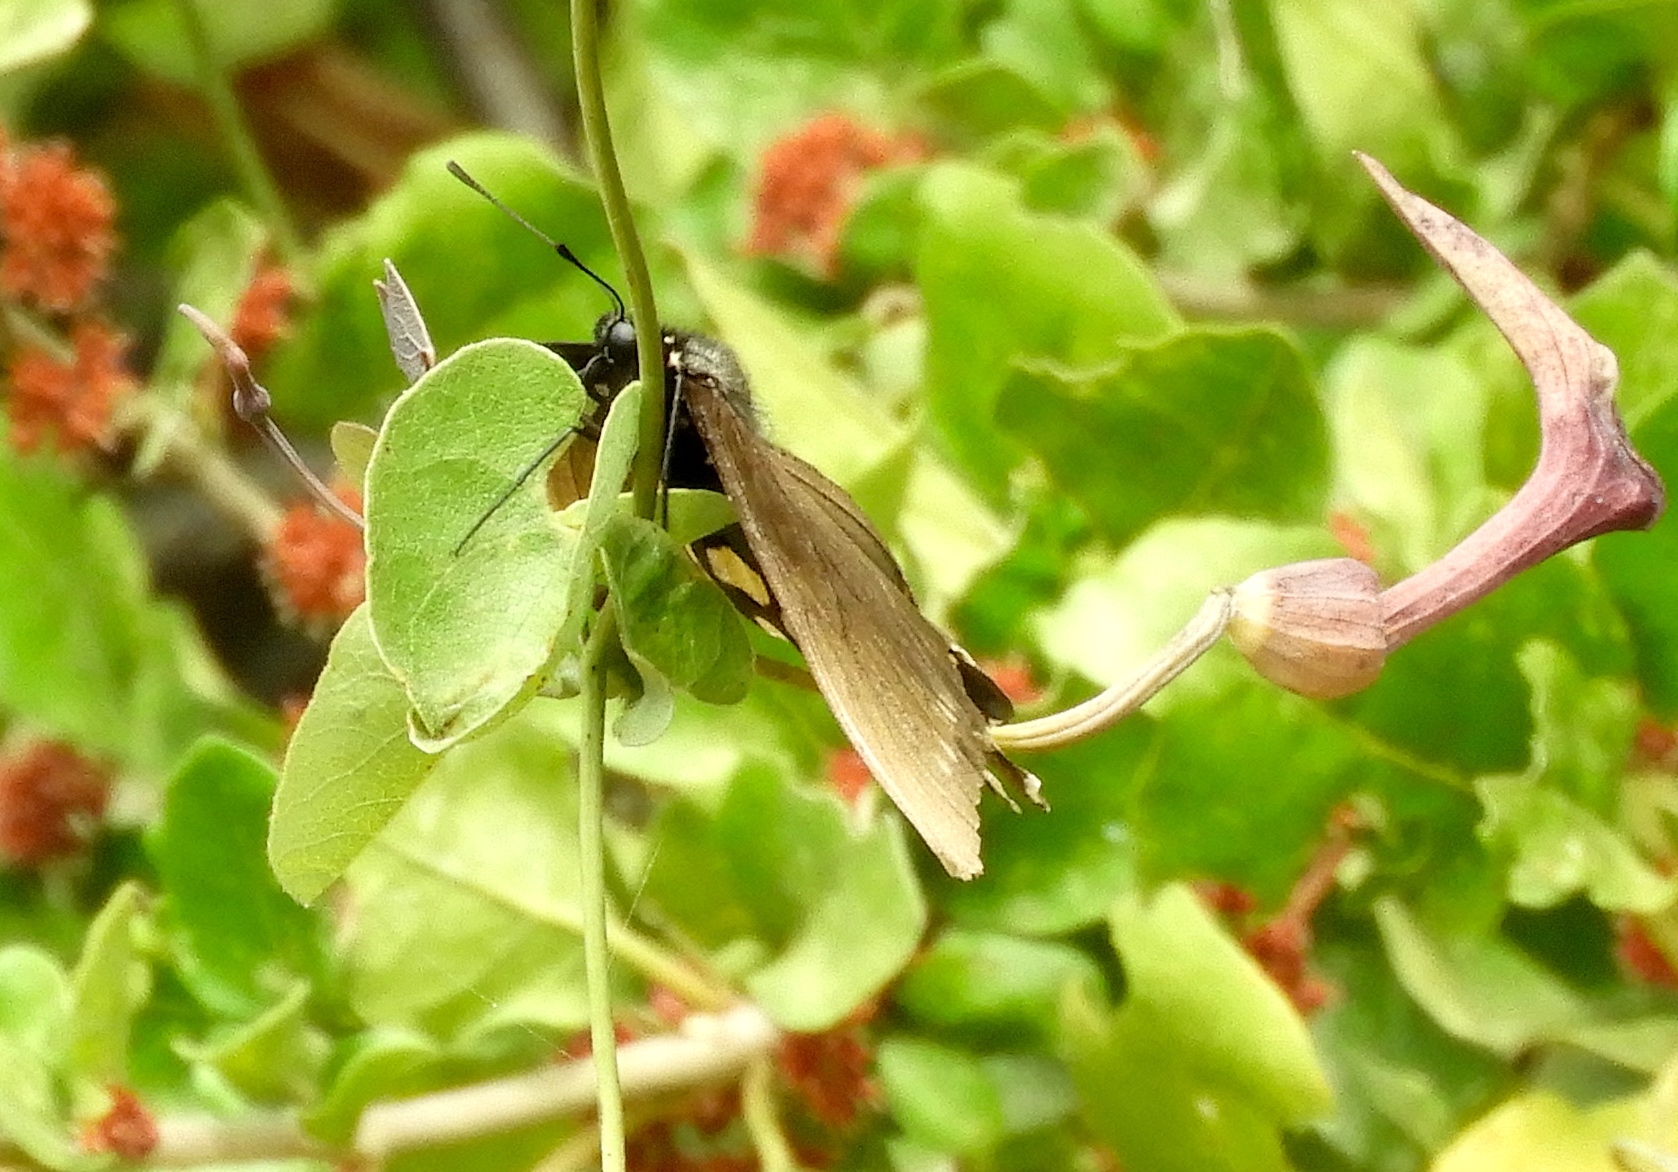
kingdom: Animalia
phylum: Arthropoda
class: Insecta
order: Lepidoptera
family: Papilionidae
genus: Battus
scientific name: Battus philenor
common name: Pipevine swallowtail
